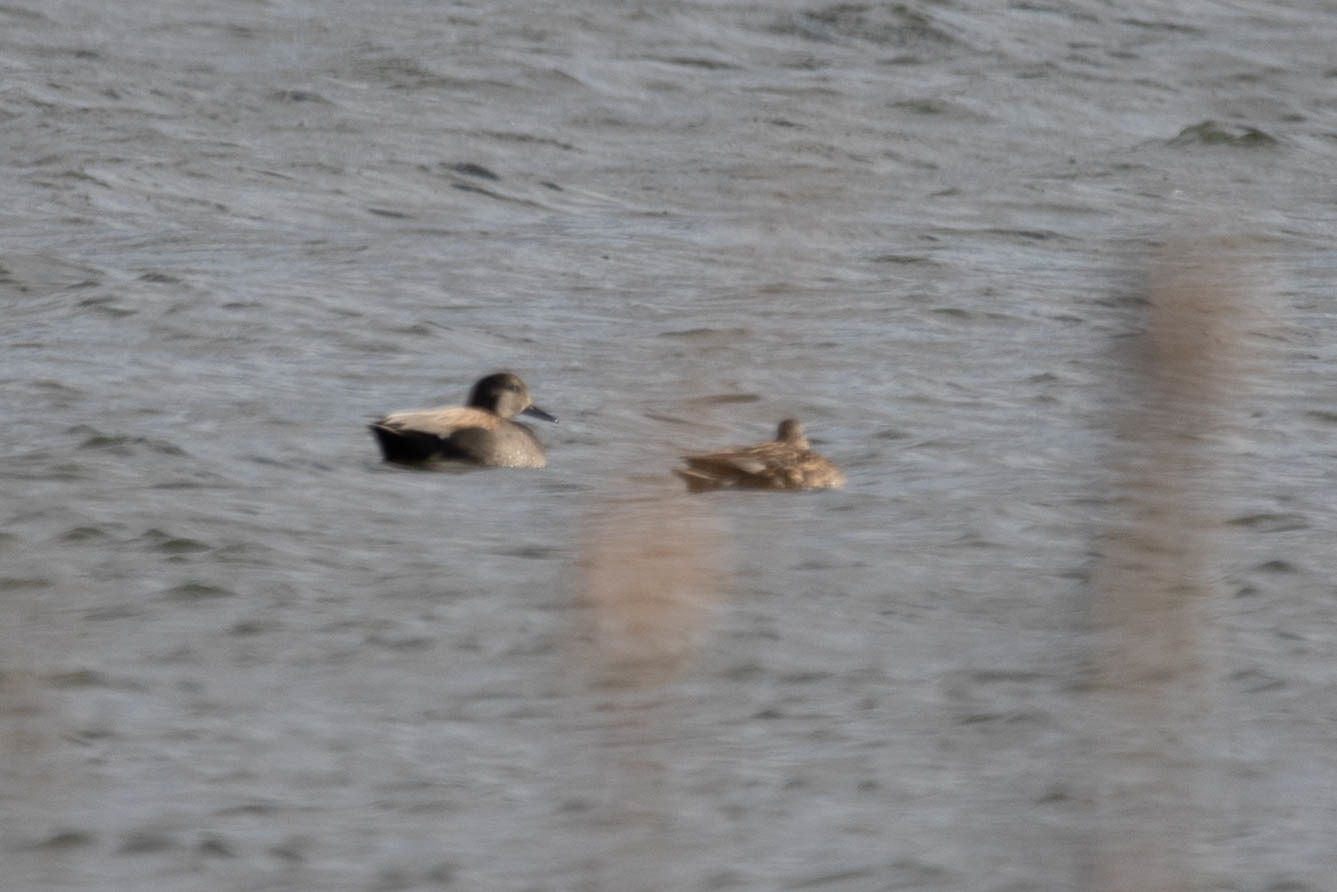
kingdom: Animalia
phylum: Chordata
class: Aves
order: Anseriformes
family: Anatidae
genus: Mareca
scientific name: Mareca strepera
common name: Gadwall
